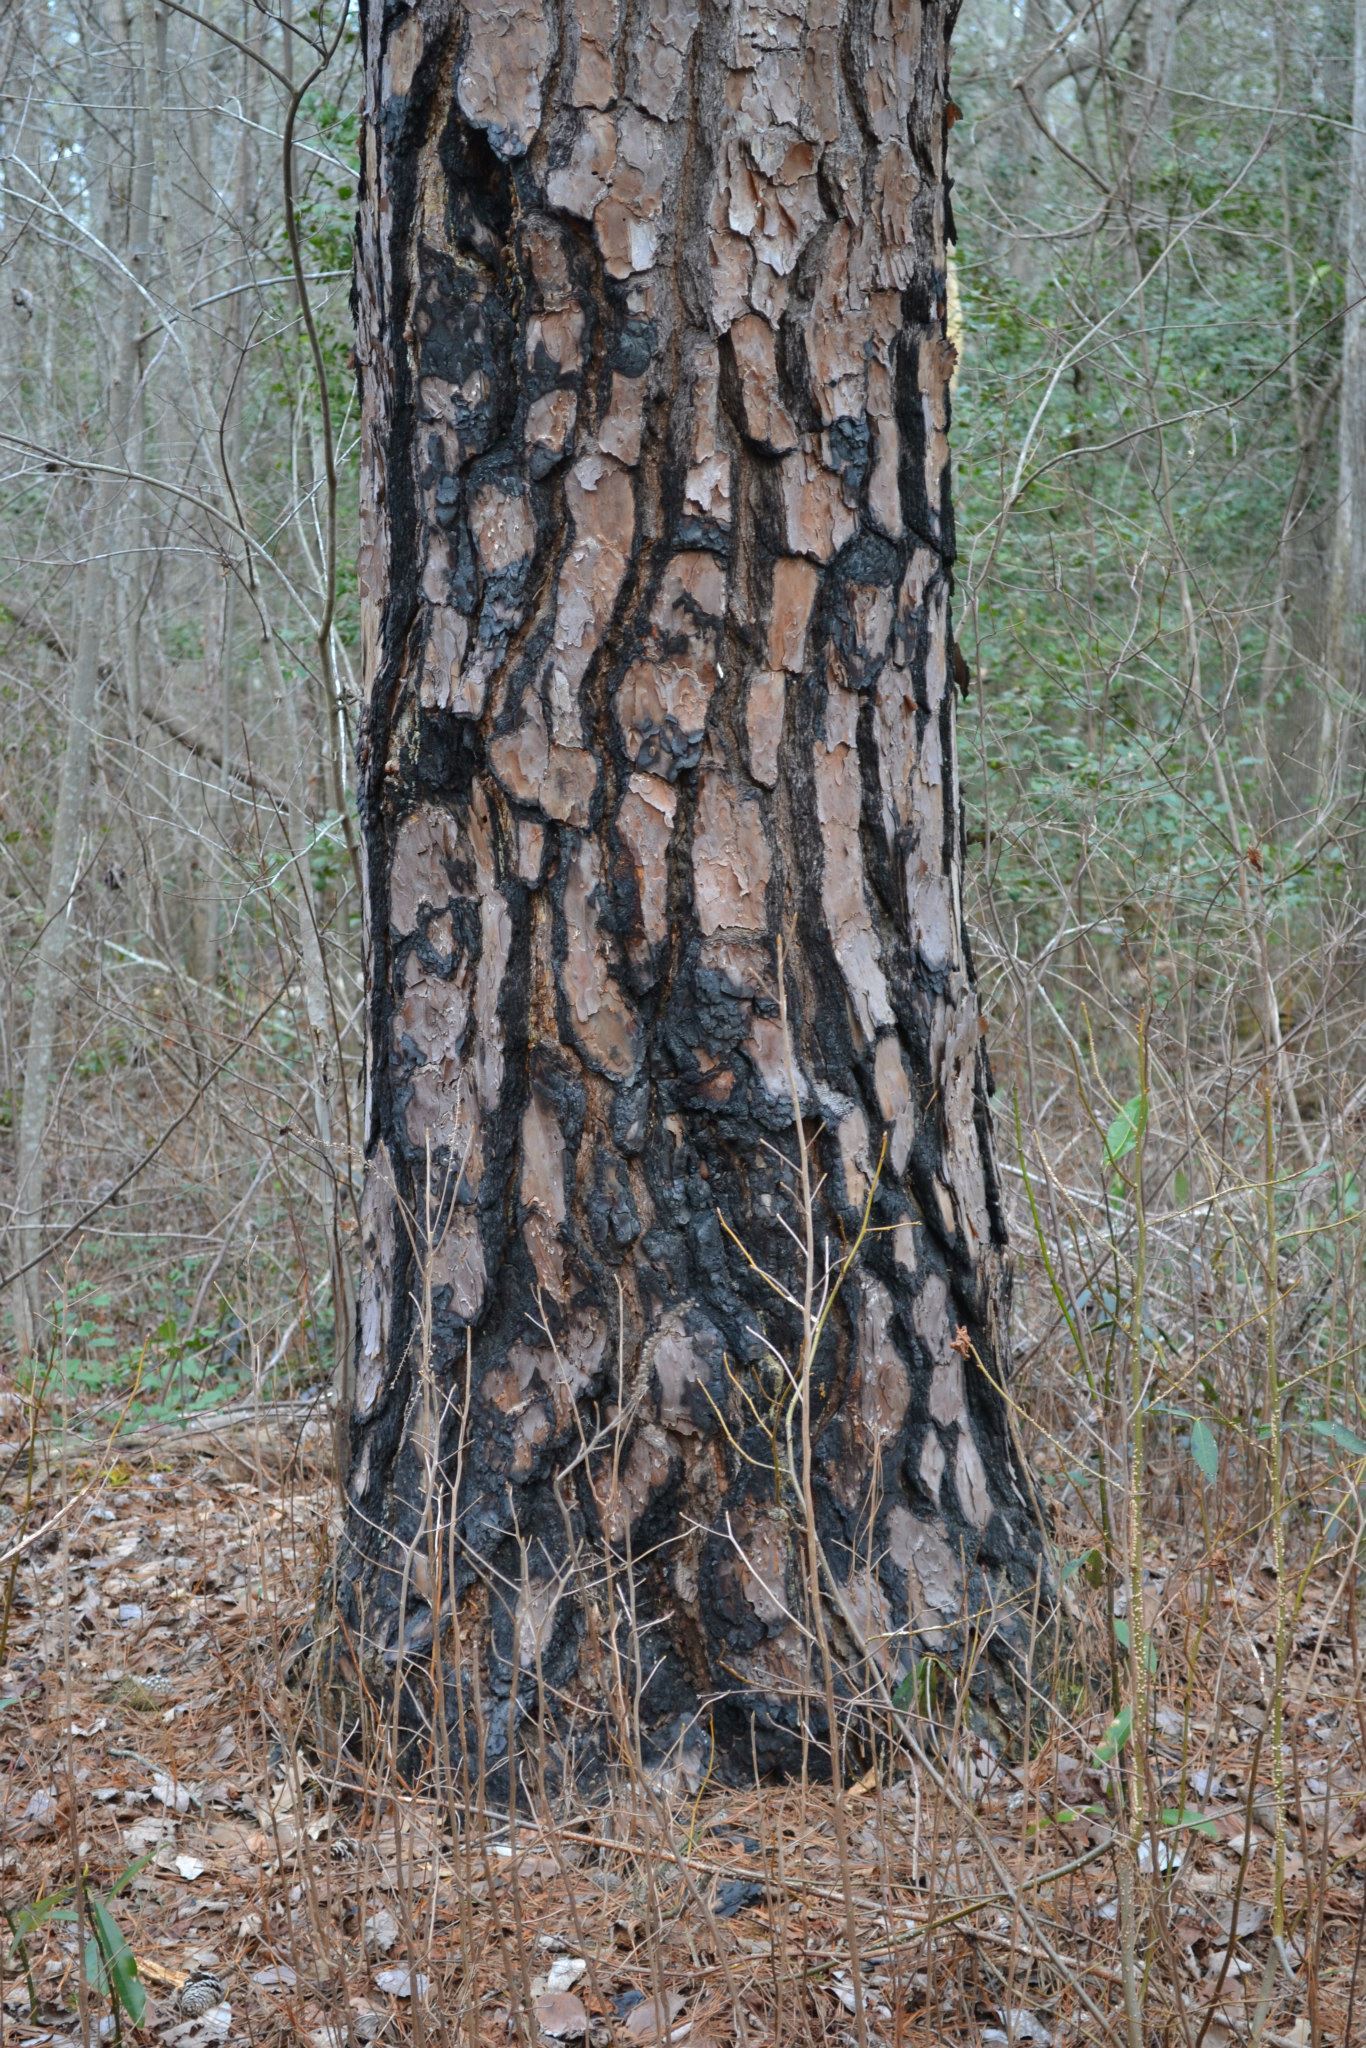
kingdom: Plantae
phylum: Tracheophyta
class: Pinopsida
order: Pinales
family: Pinaceae
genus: Pinus
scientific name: Pinus taeda
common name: Loblolly pine
